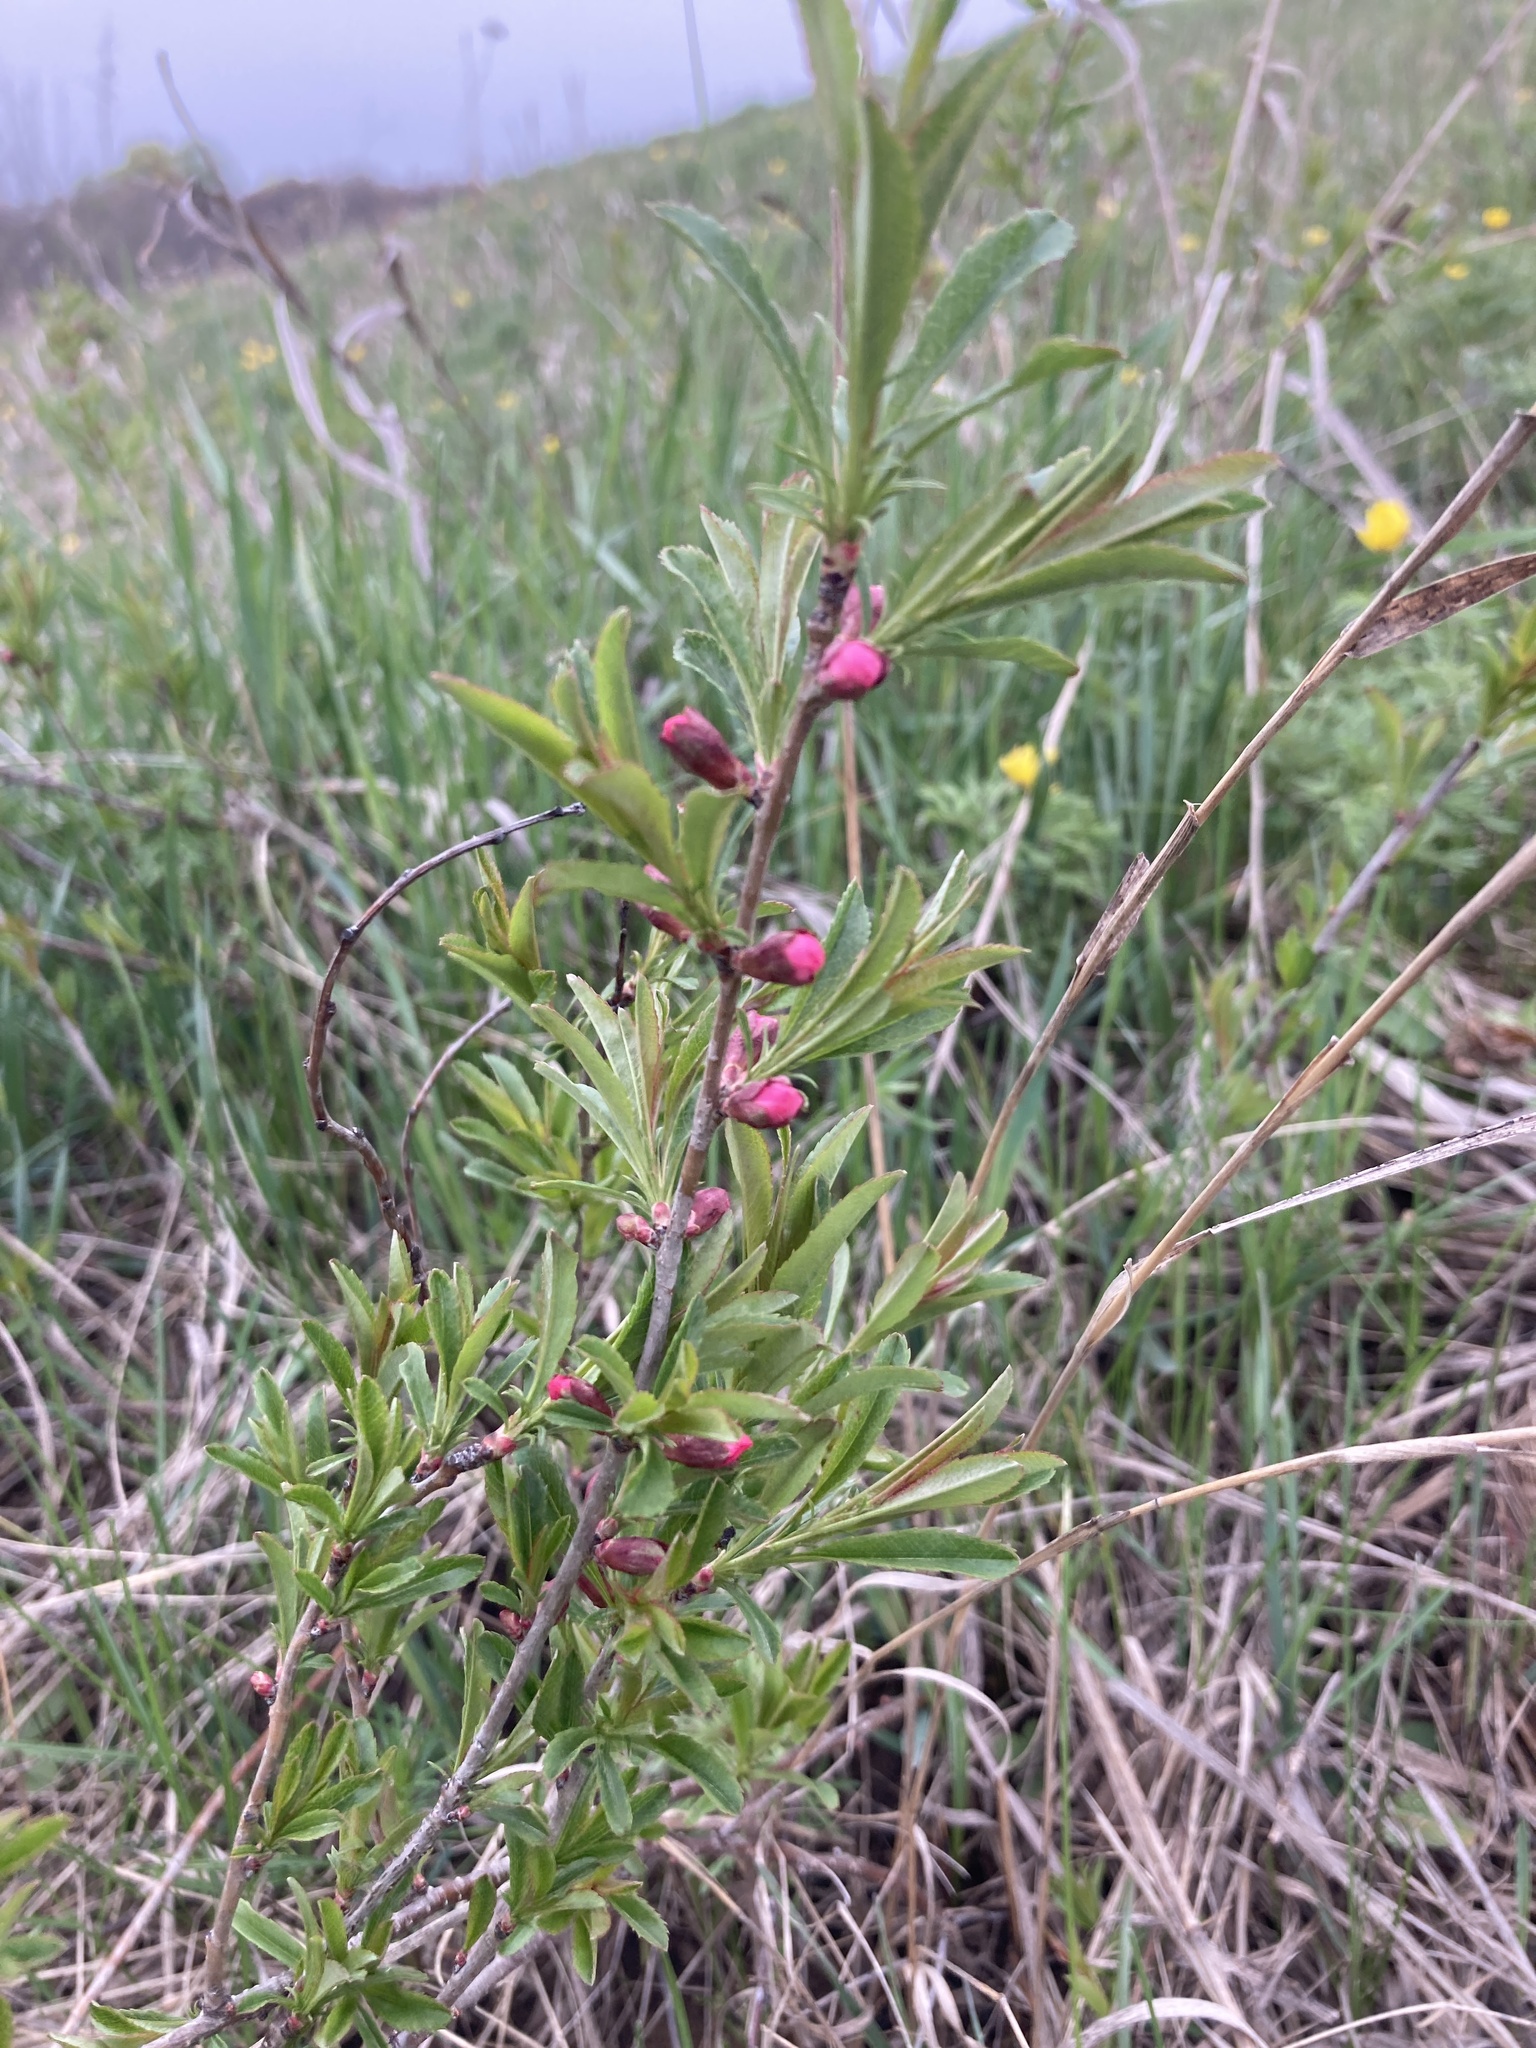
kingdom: Plantae
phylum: Tracheophyta
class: Magnoliopsida
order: Rosales
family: Rosaceae
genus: Prunus
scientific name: Prunus tenella
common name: Dwarf russian almond
